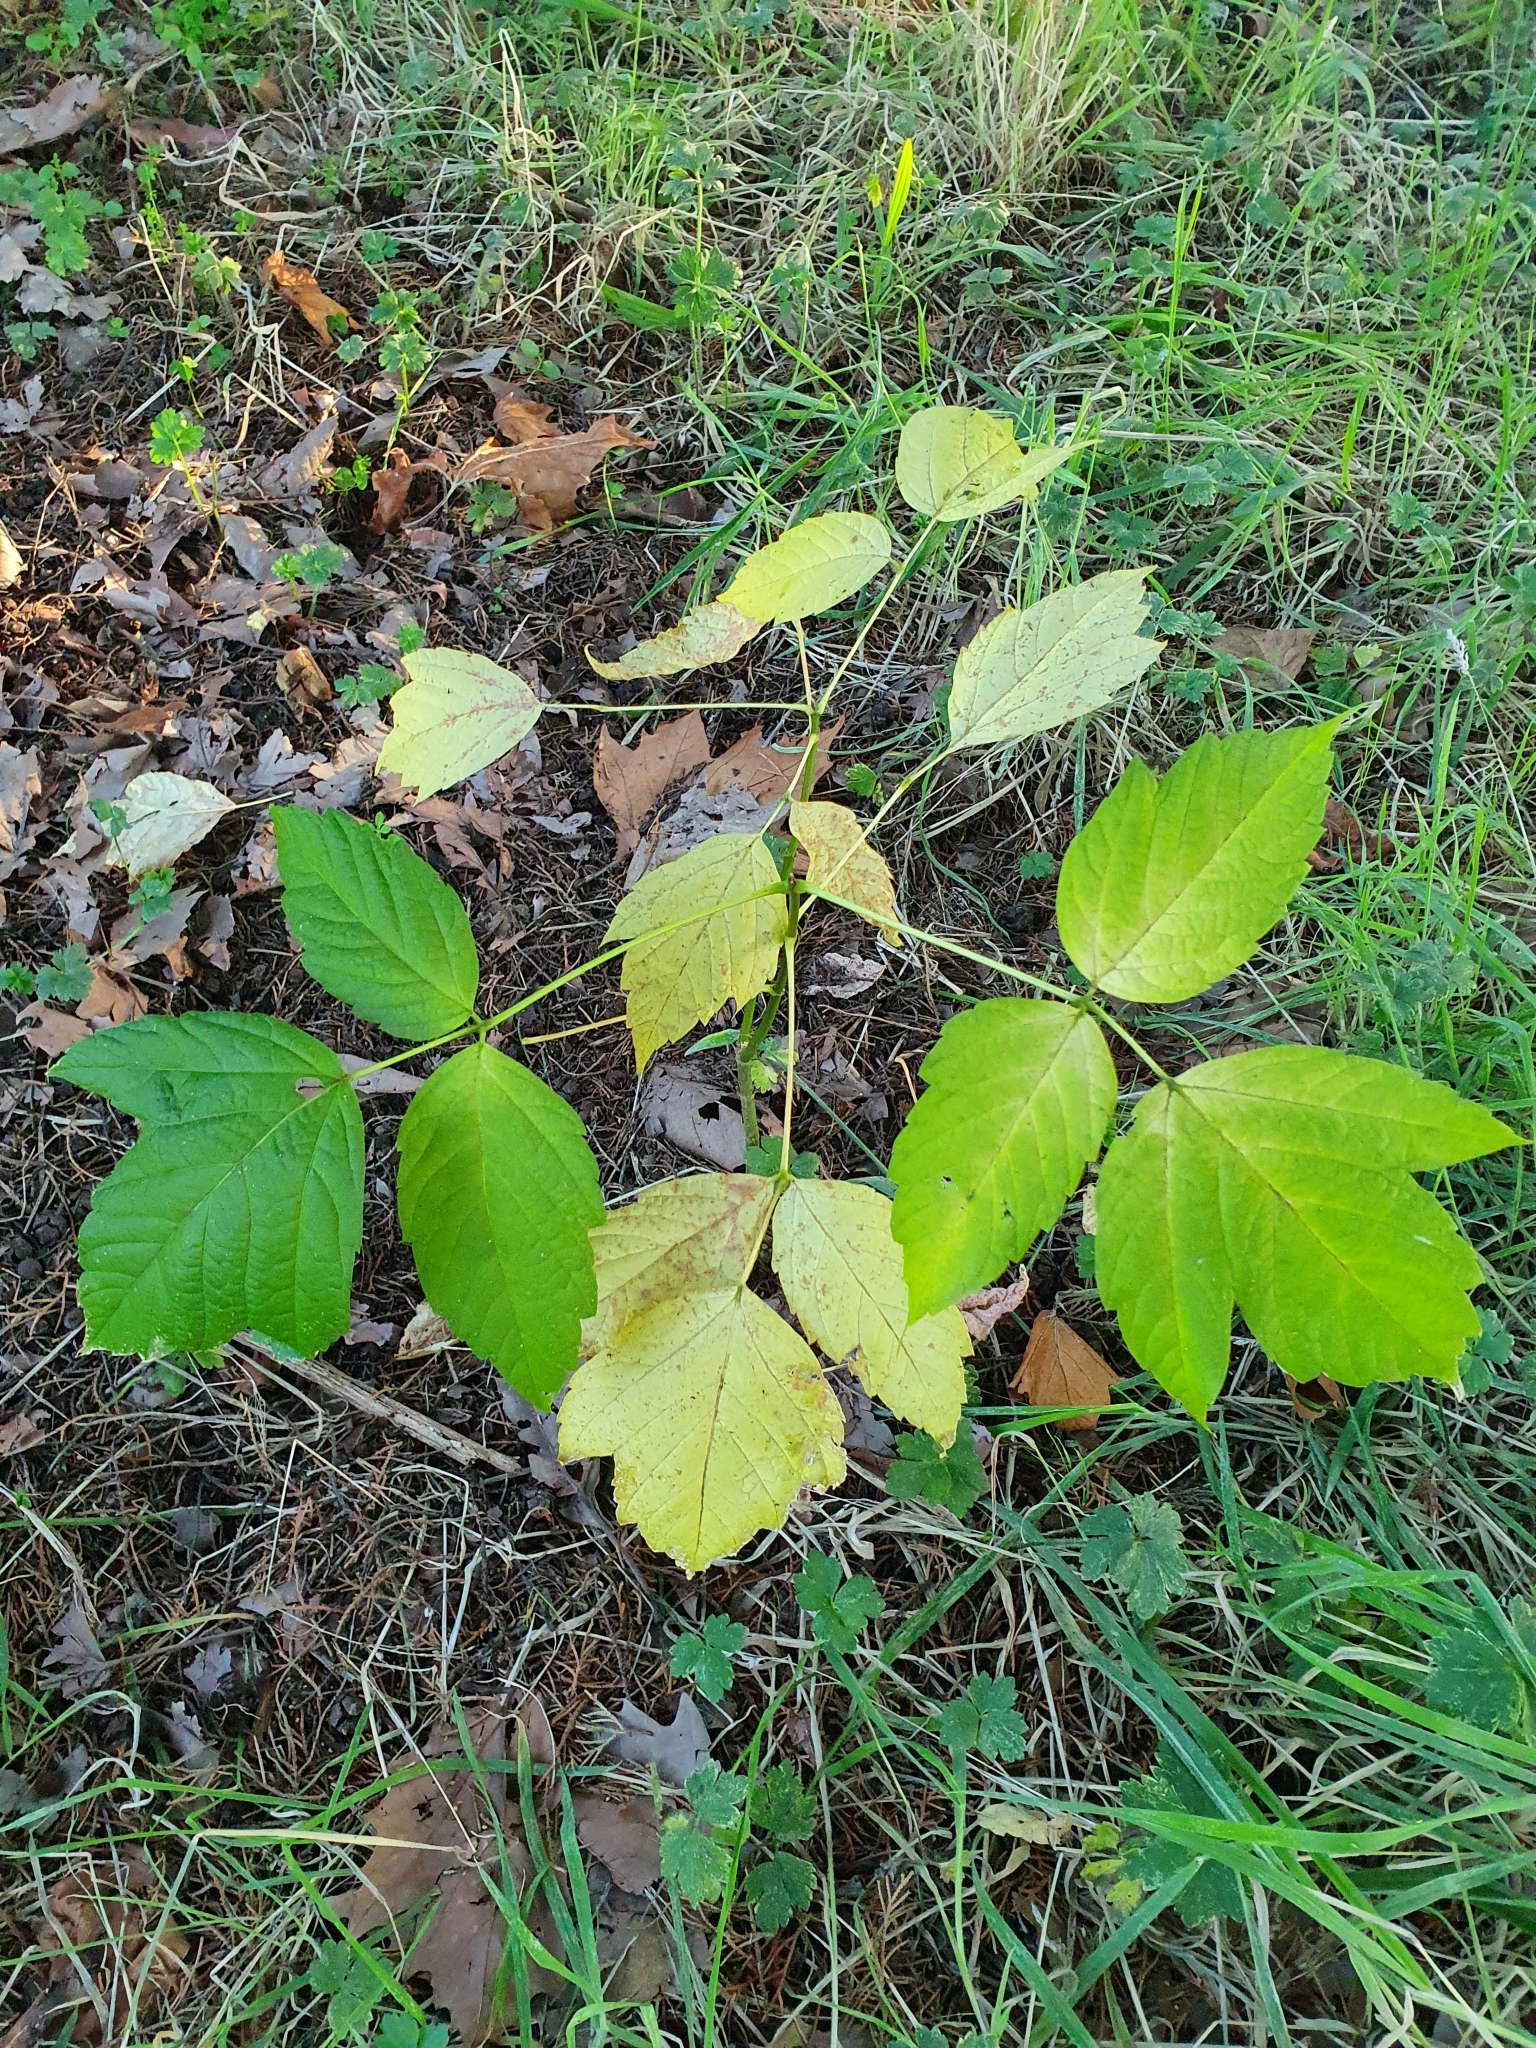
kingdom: Plantae
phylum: Tracheophyta
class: Magnoliopsida
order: Sapindales
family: Sapindaceae
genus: Acer
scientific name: Acer negundo
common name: Ashleaf maple
